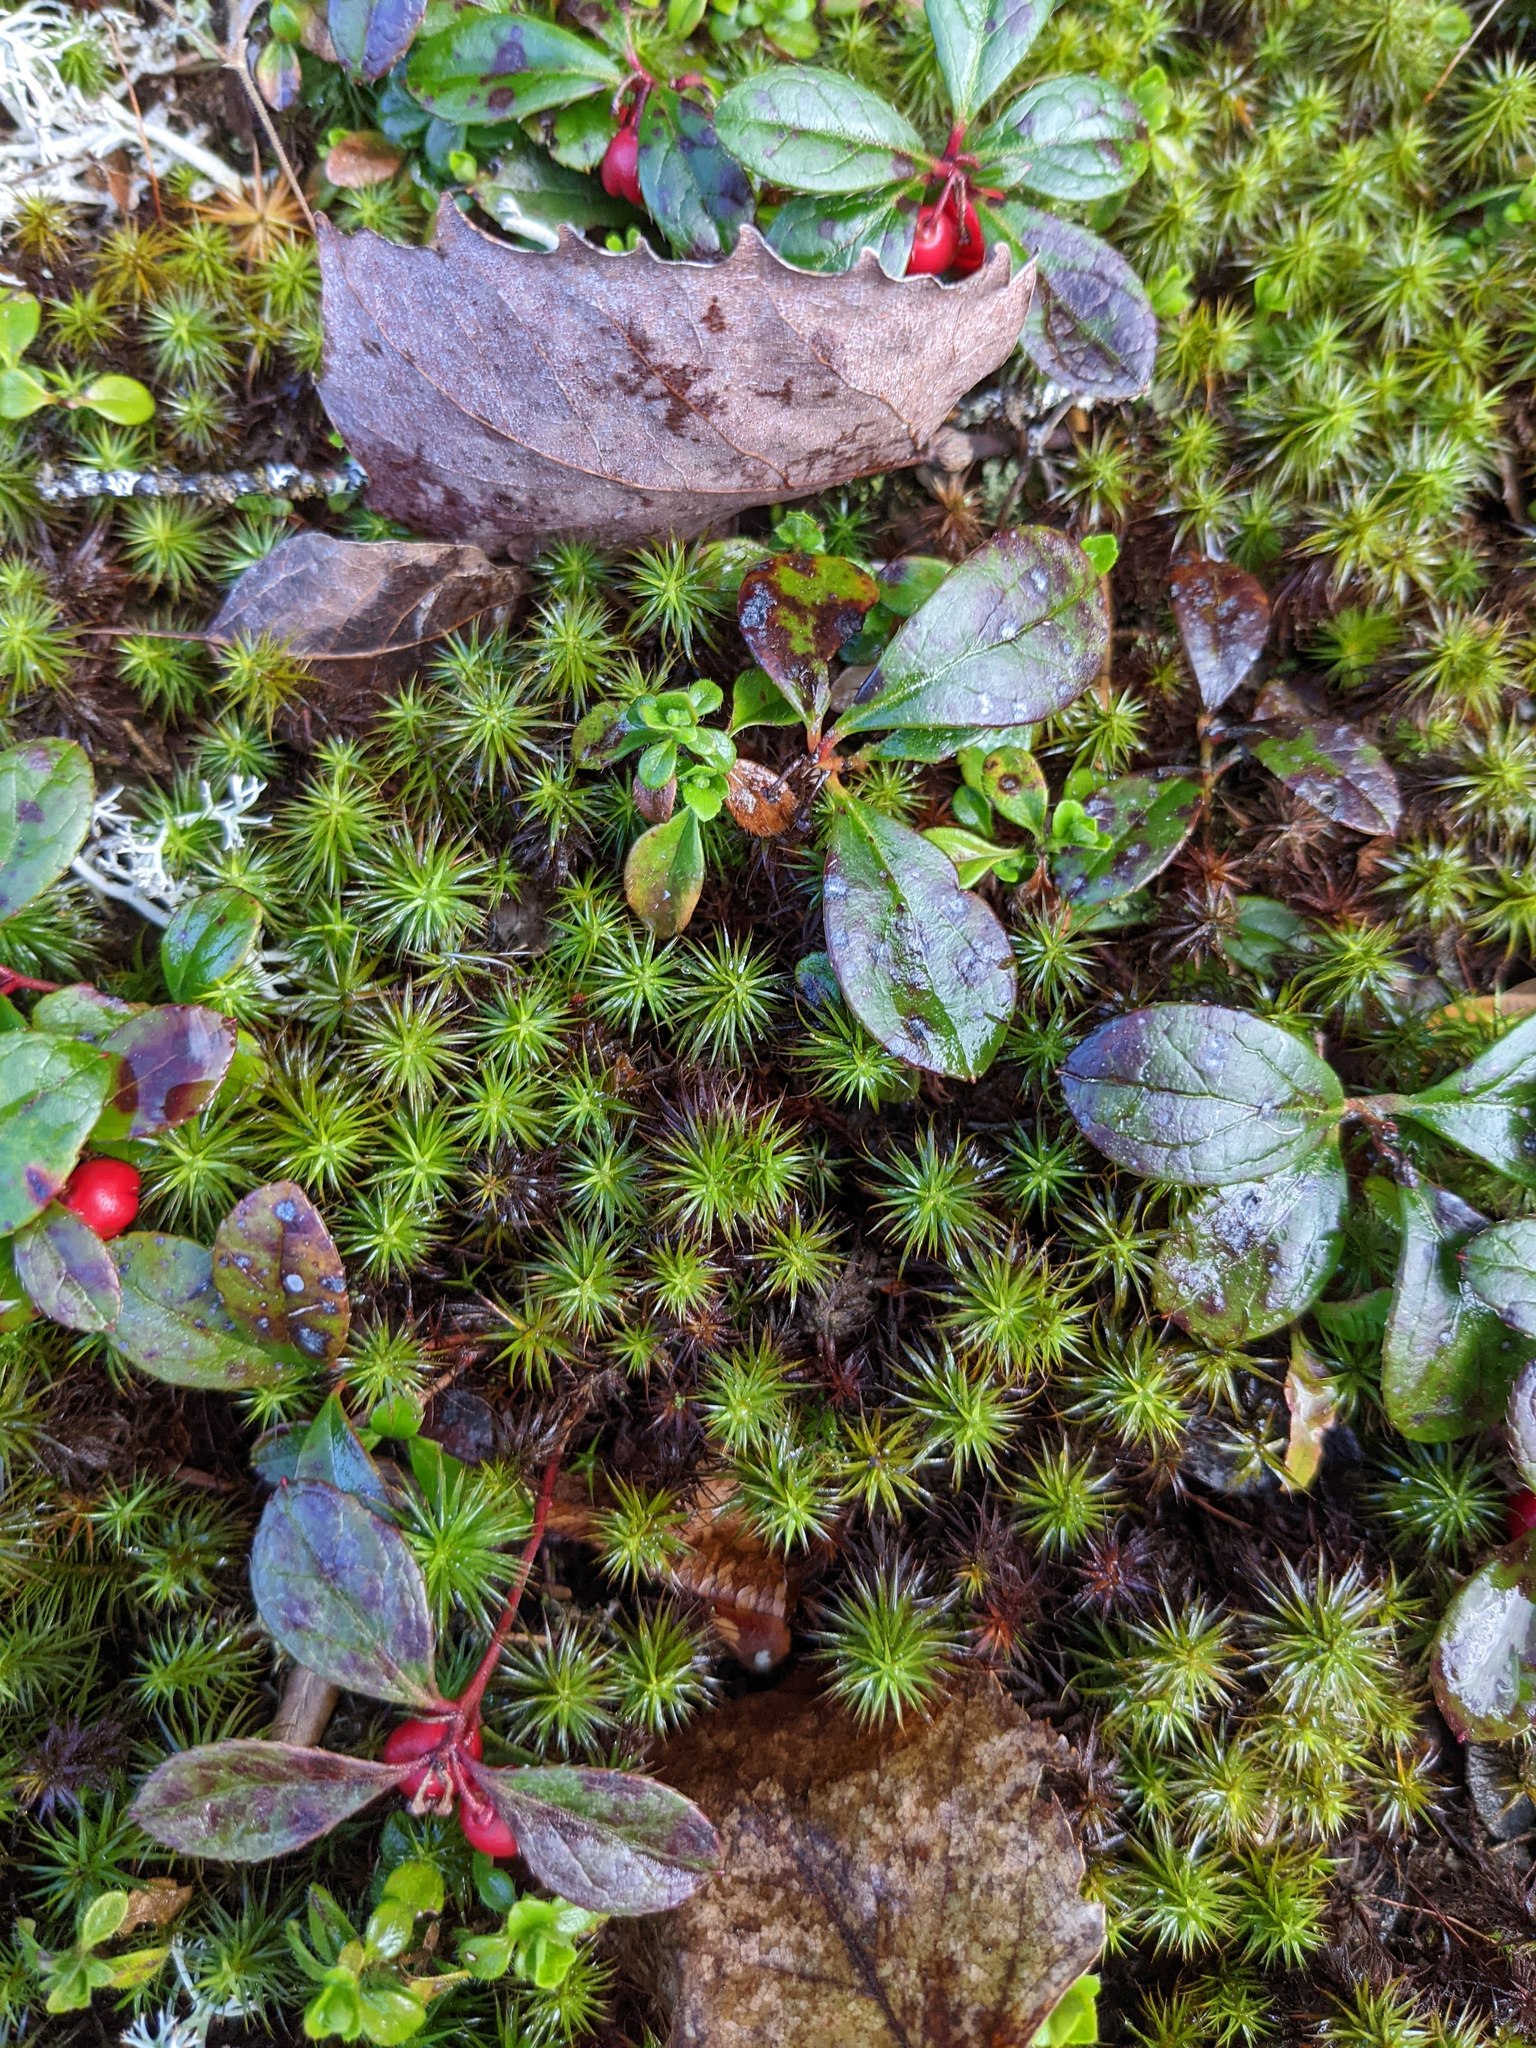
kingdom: Plantae
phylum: Tracheophyta
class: Magnoliopsida
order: Ericales
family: Ericaceae
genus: Gaultheria
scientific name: Gaultheria procumbens
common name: Checkerberry
